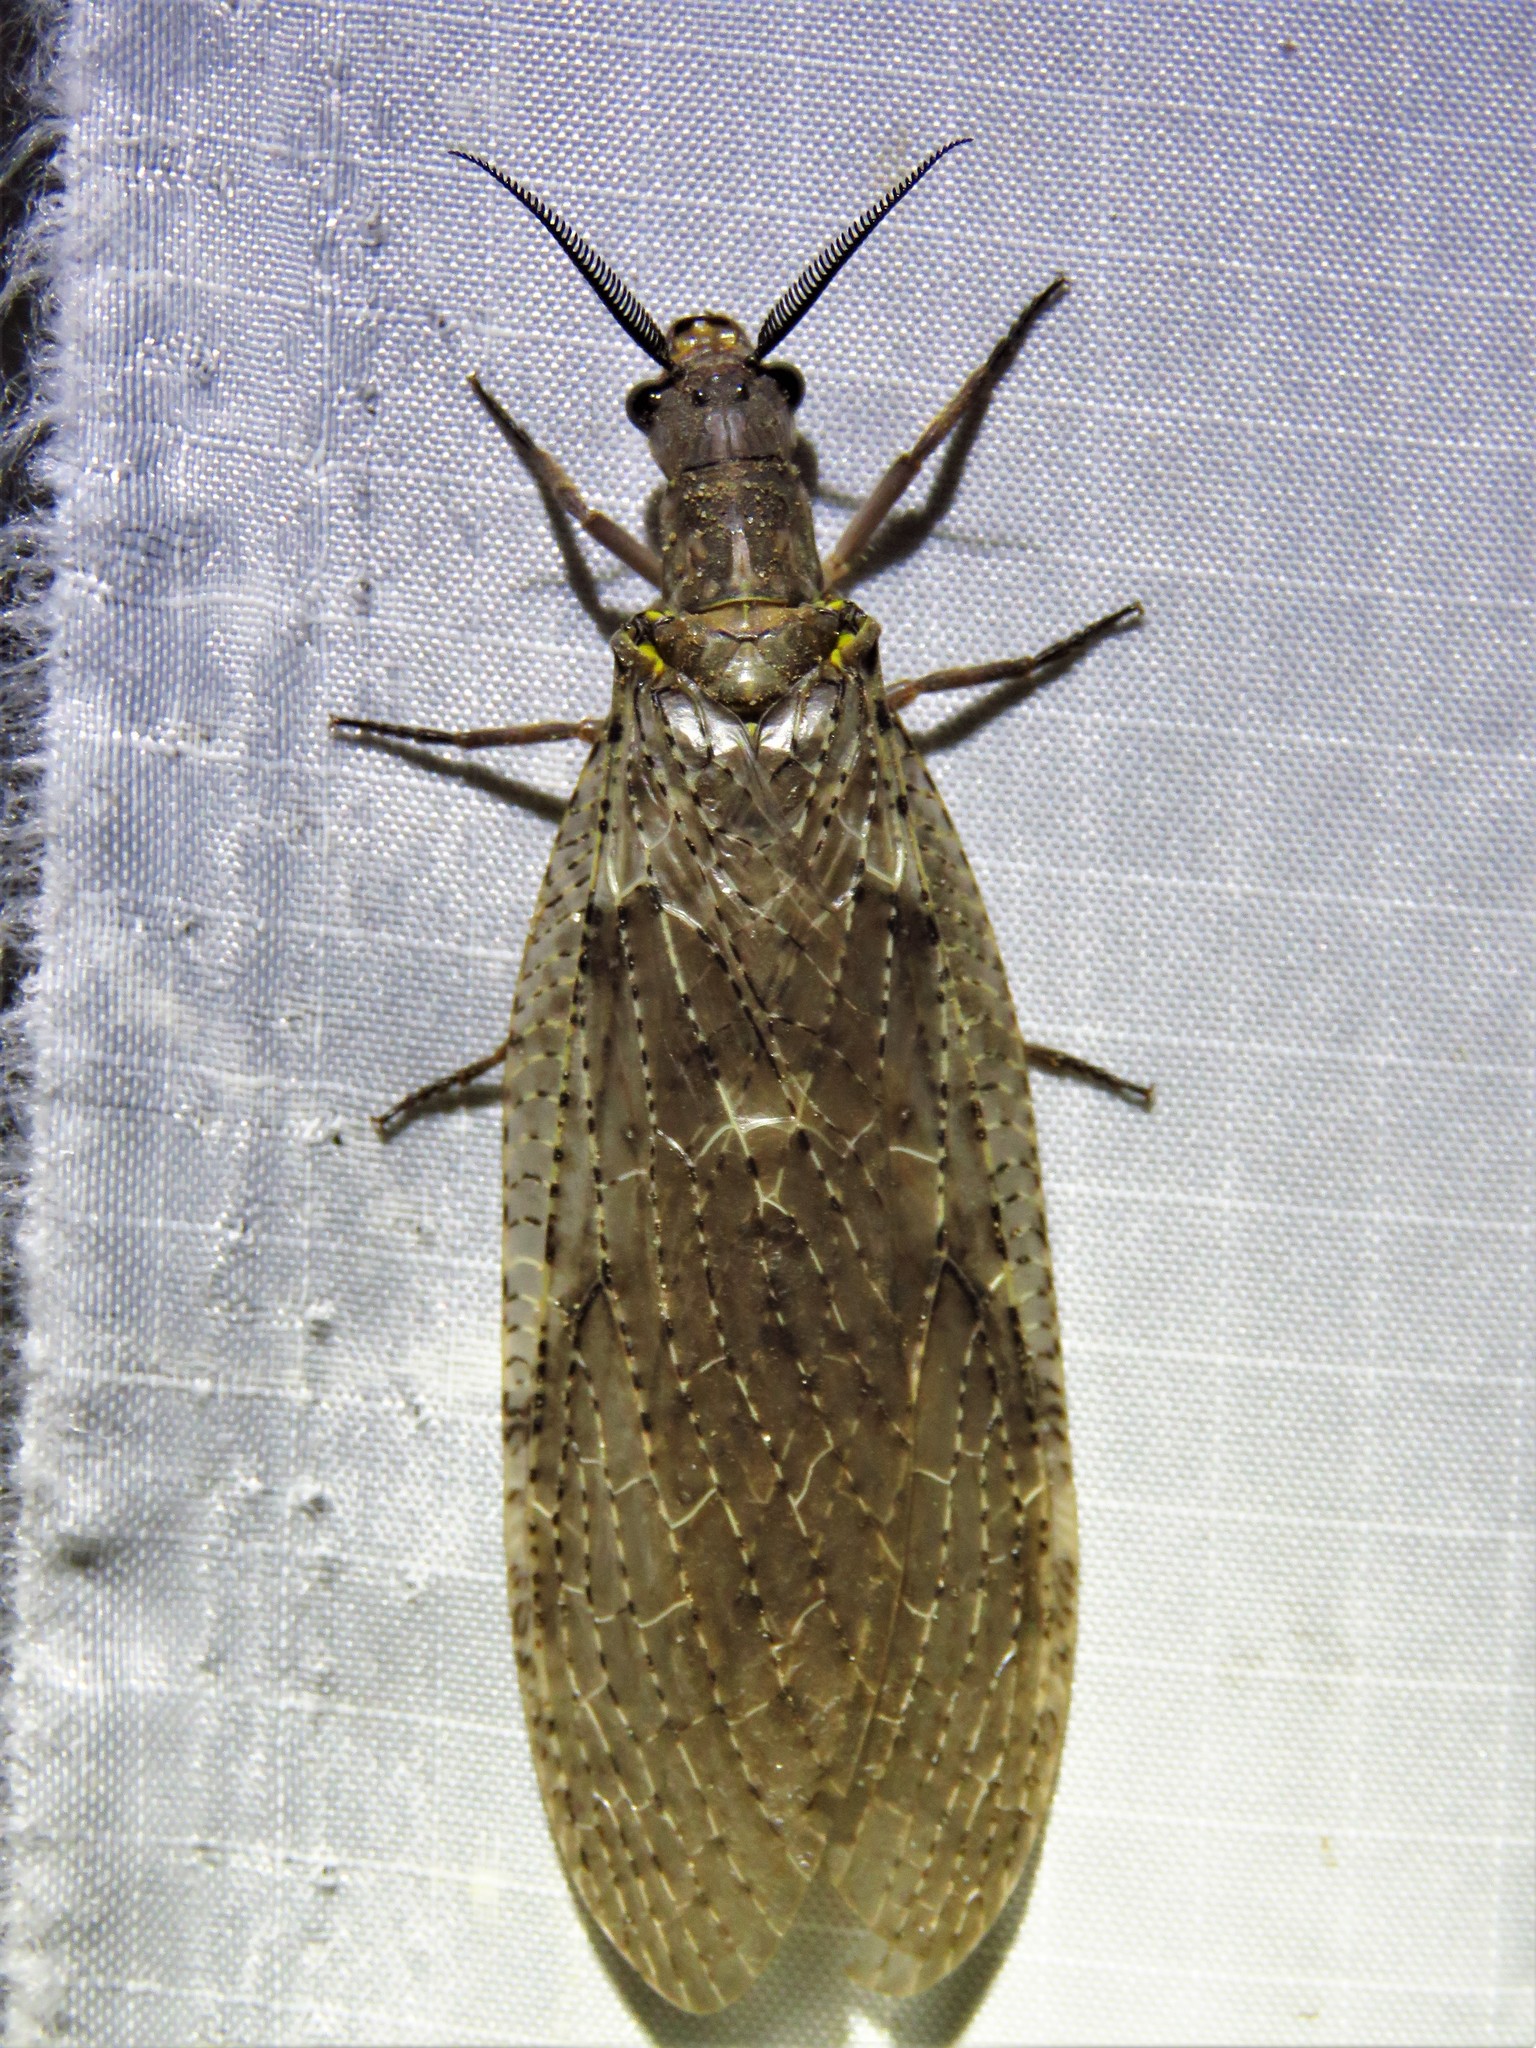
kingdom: Animalia
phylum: Arthropoda
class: Insecta
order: Megaloptera
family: Corydalidae
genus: Chauliodes
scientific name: Chauliodes pectinicornis
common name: Summer fishfly
